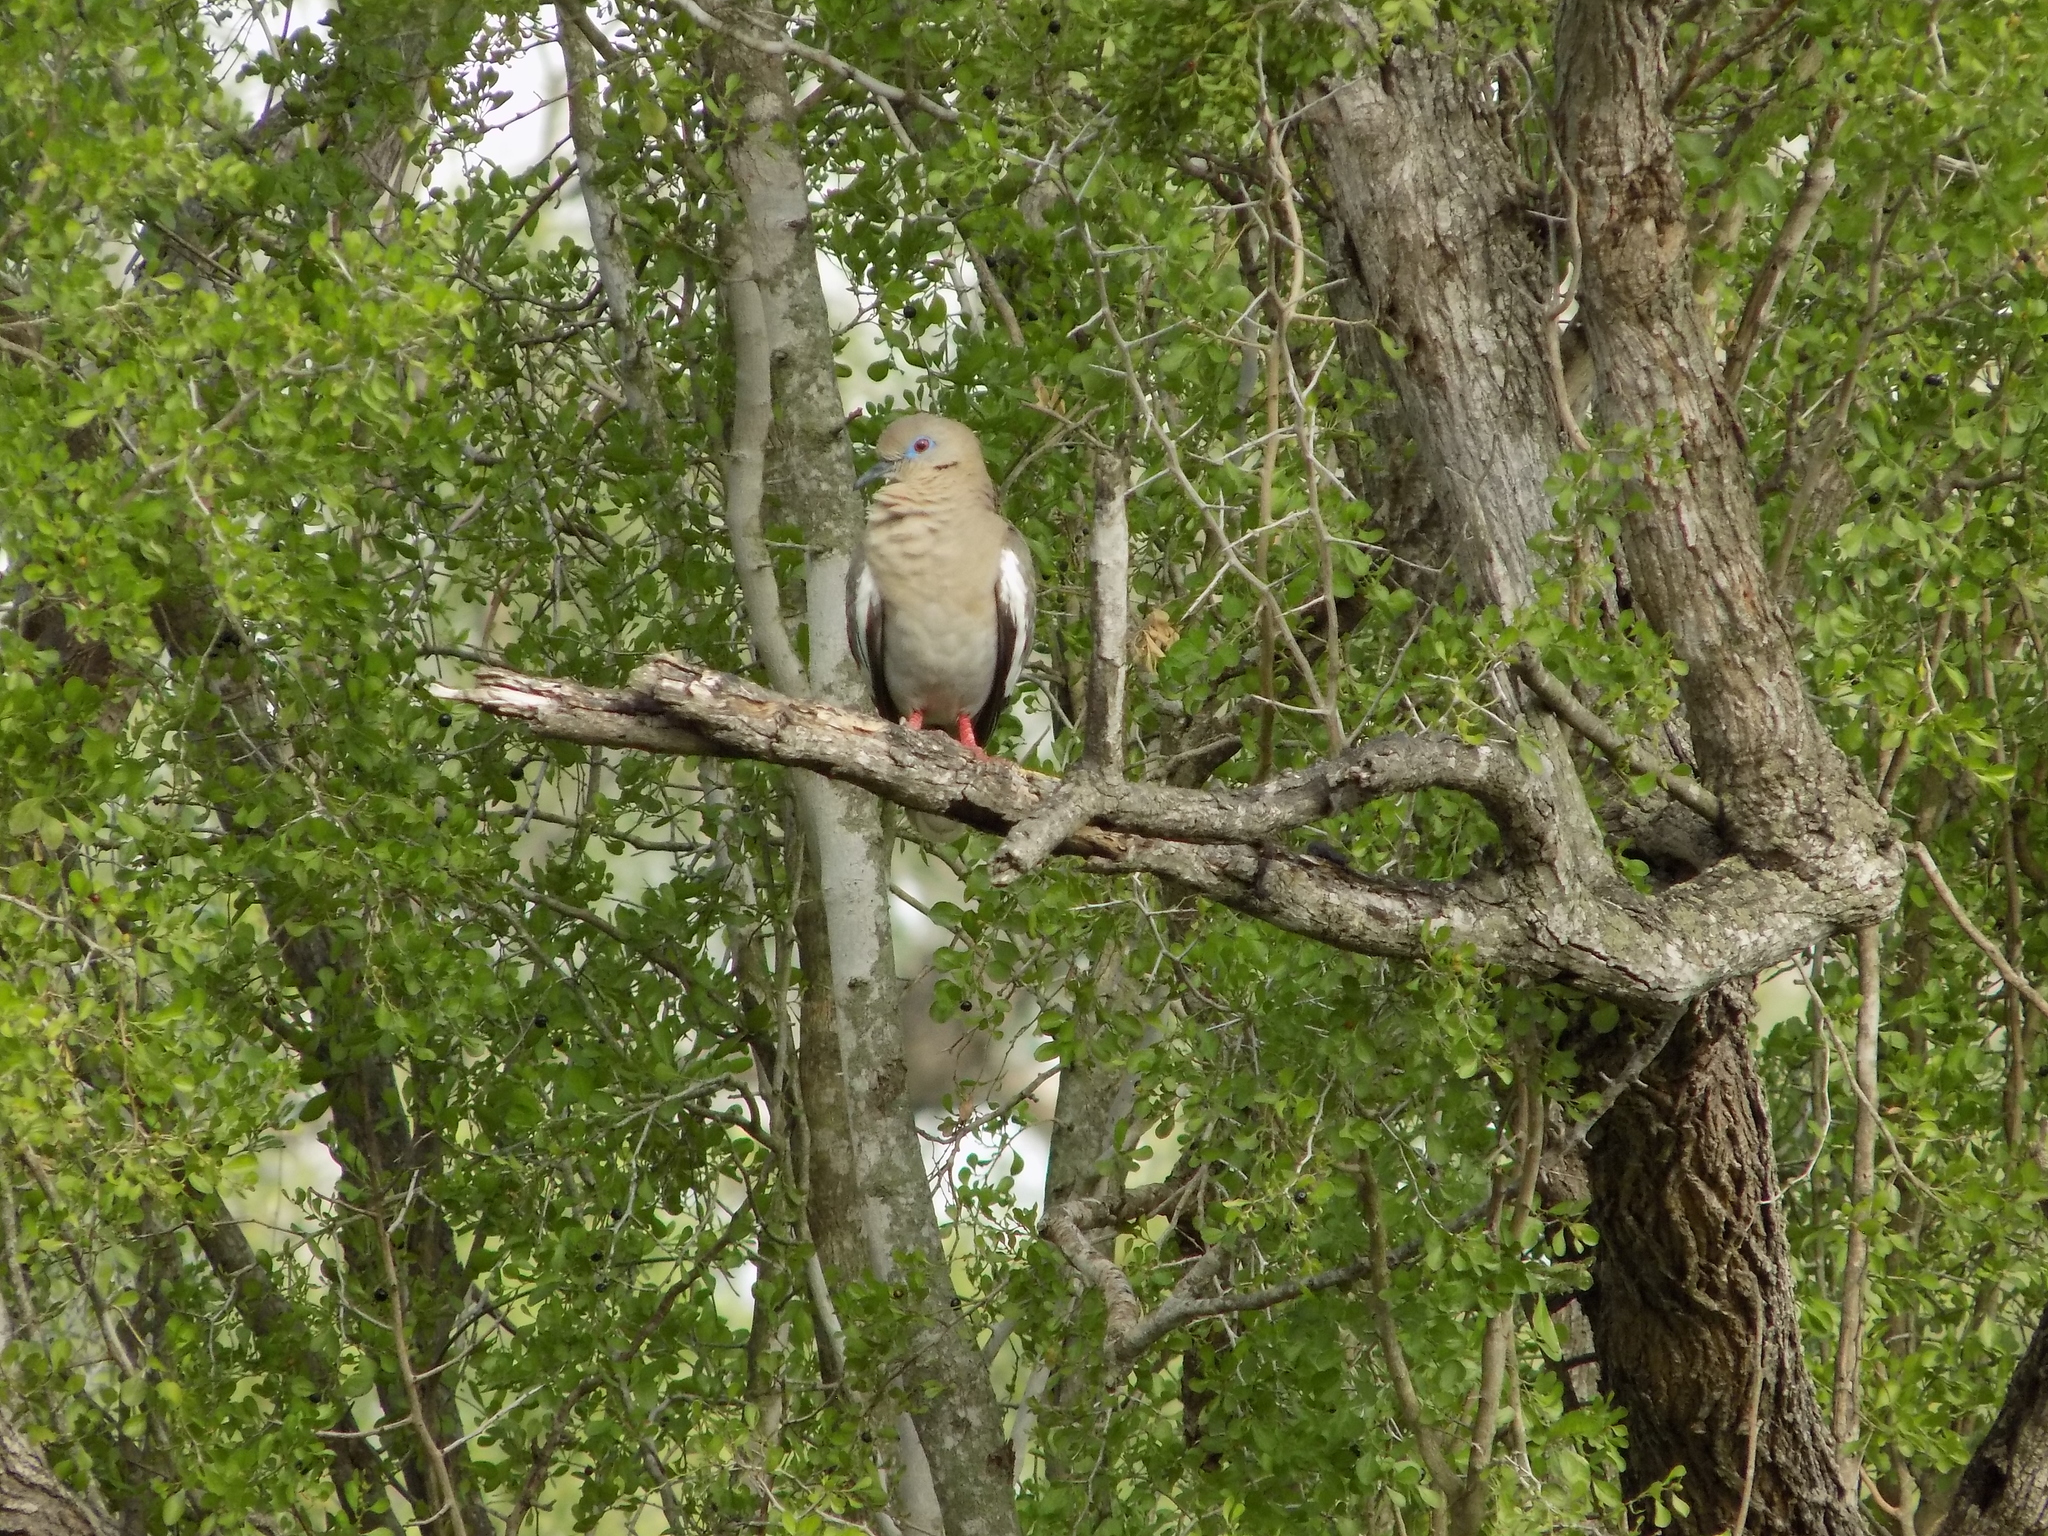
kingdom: Animalia
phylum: Chordata
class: Aves
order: Columbiformes
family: Columbidae
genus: Zenaida
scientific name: Zenaida asiatica
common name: White-winged dove
